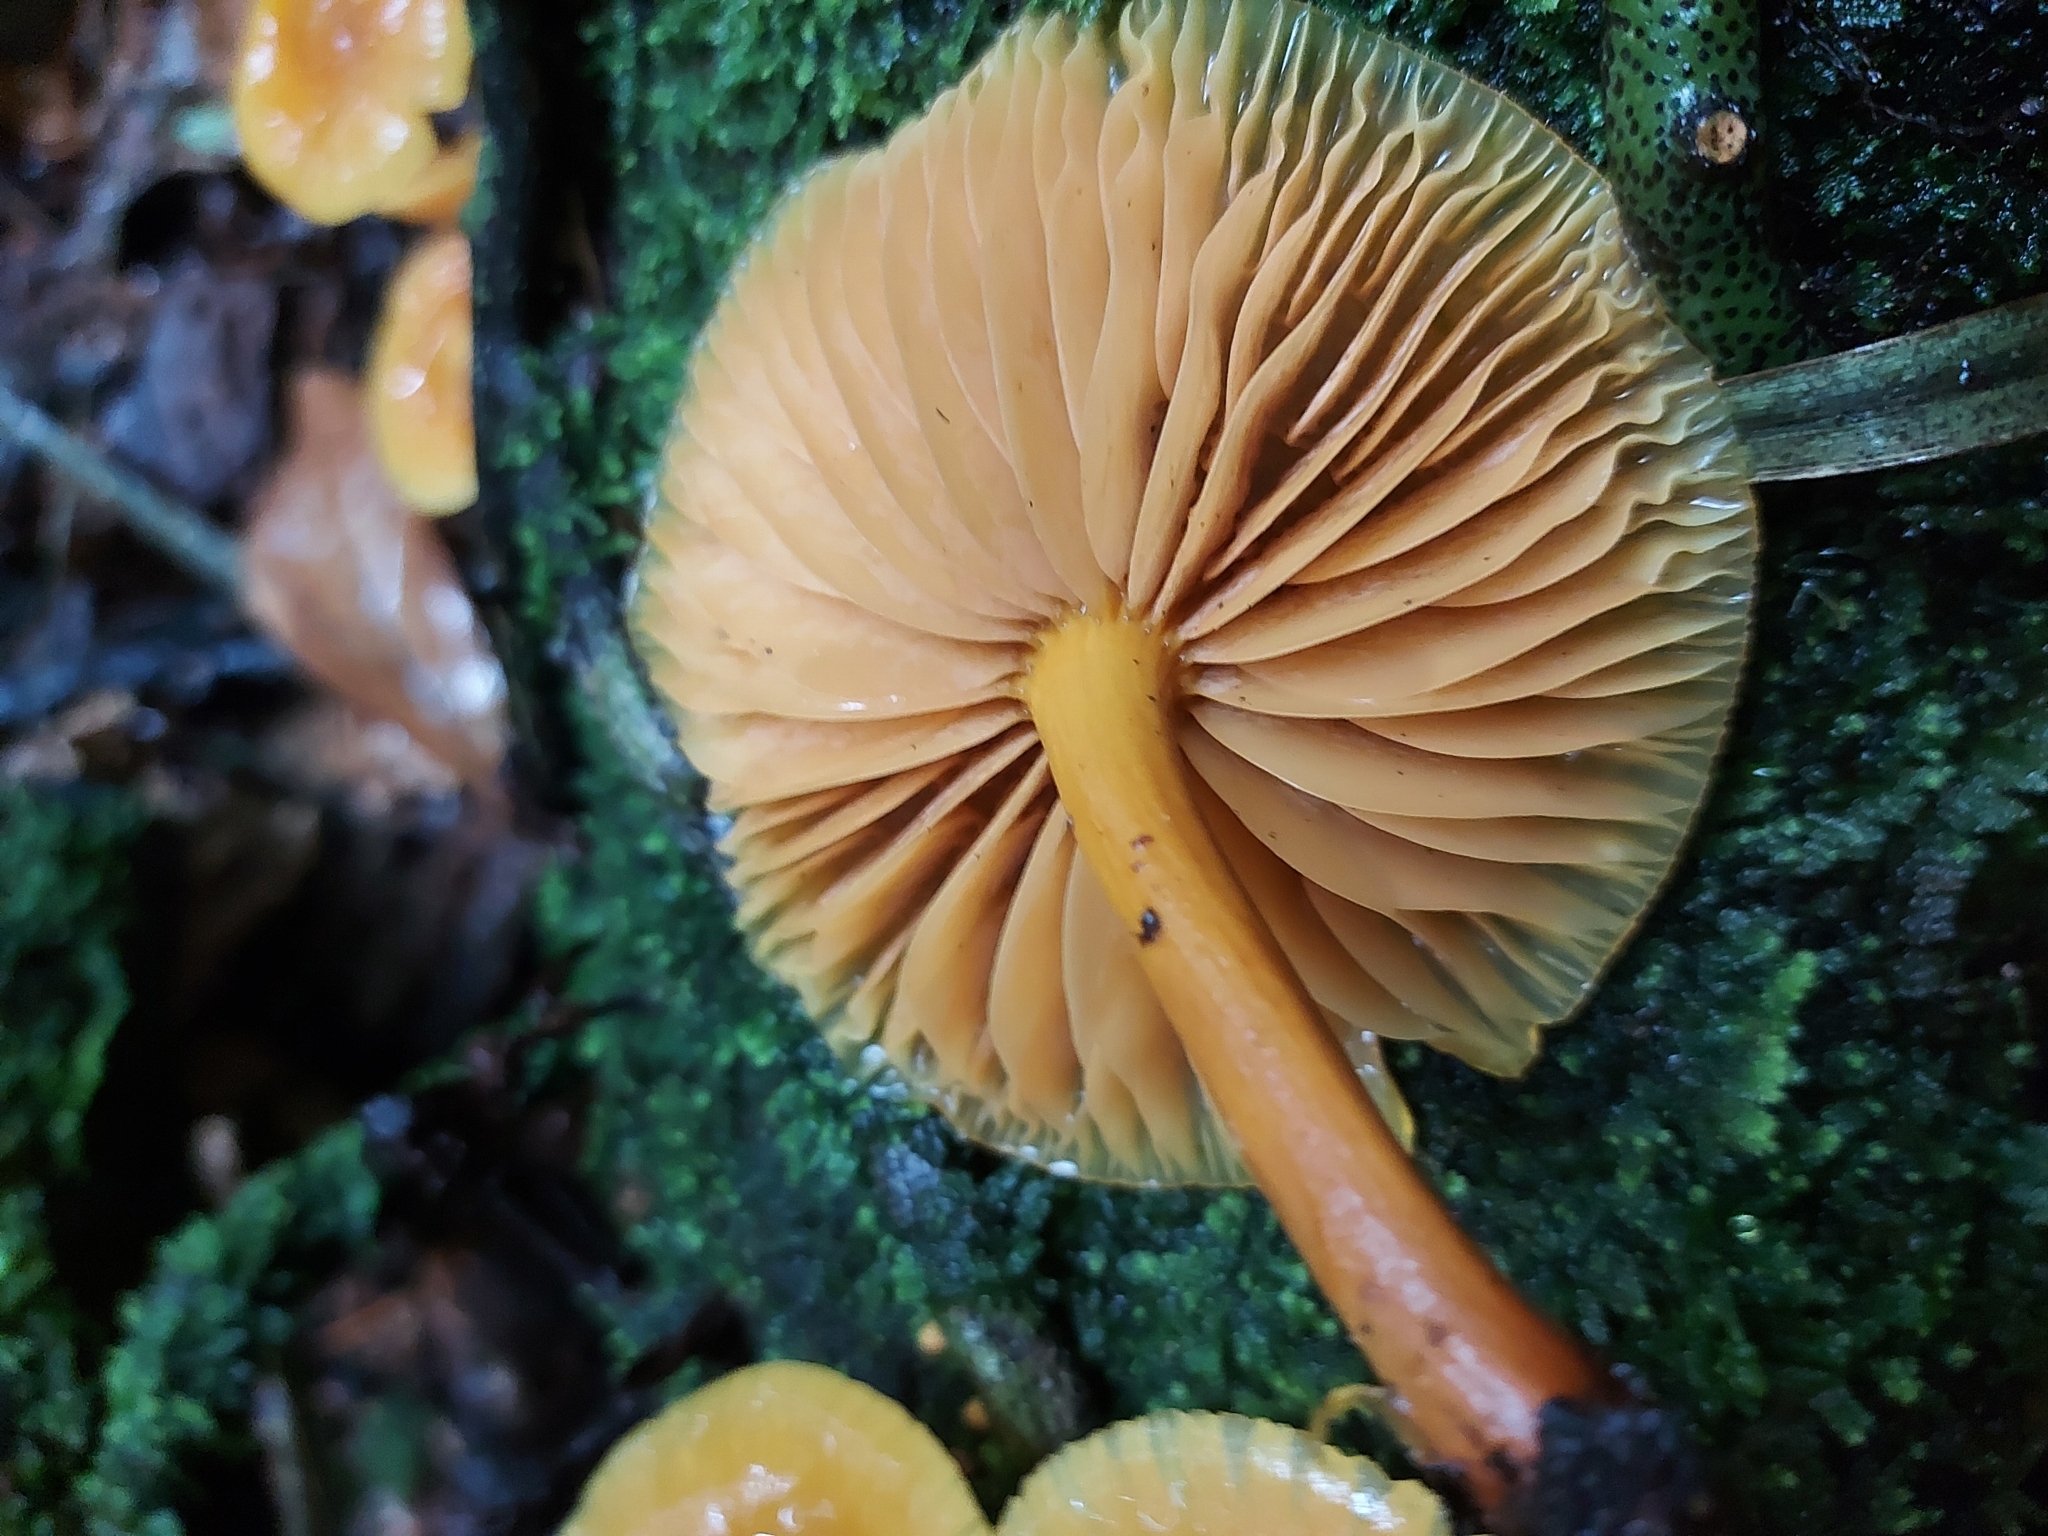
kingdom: Fungi
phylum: Basidiomycota
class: Agaricomycetes
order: Agaricales
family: Mycenaceae
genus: Heimiomyces
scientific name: Heimiomyces velutipes
